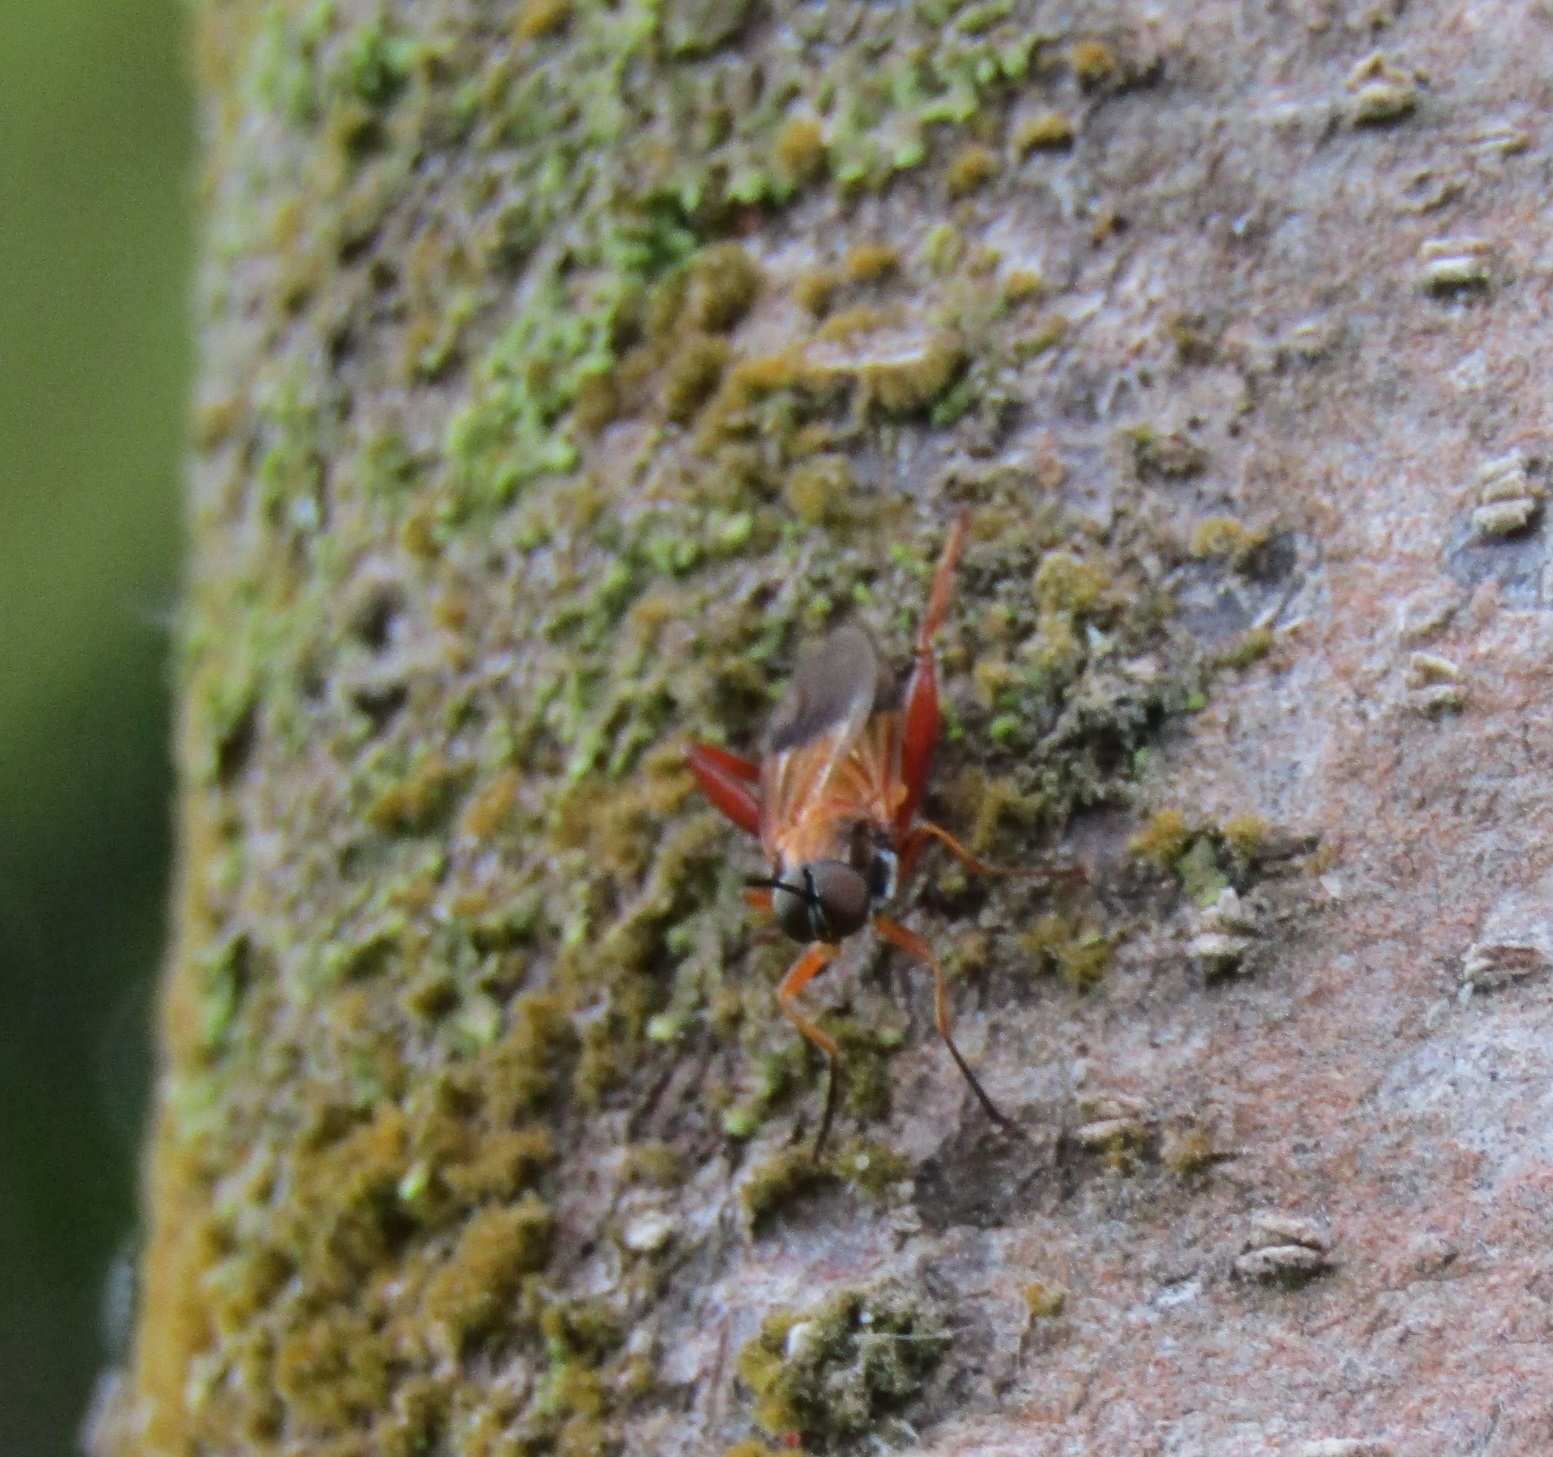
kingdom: Animalia
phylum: Arthropoda
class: Insecta
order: Diptera
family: Stratiomyidae
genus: Benhamyia
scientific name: Benhamyia apicalis
